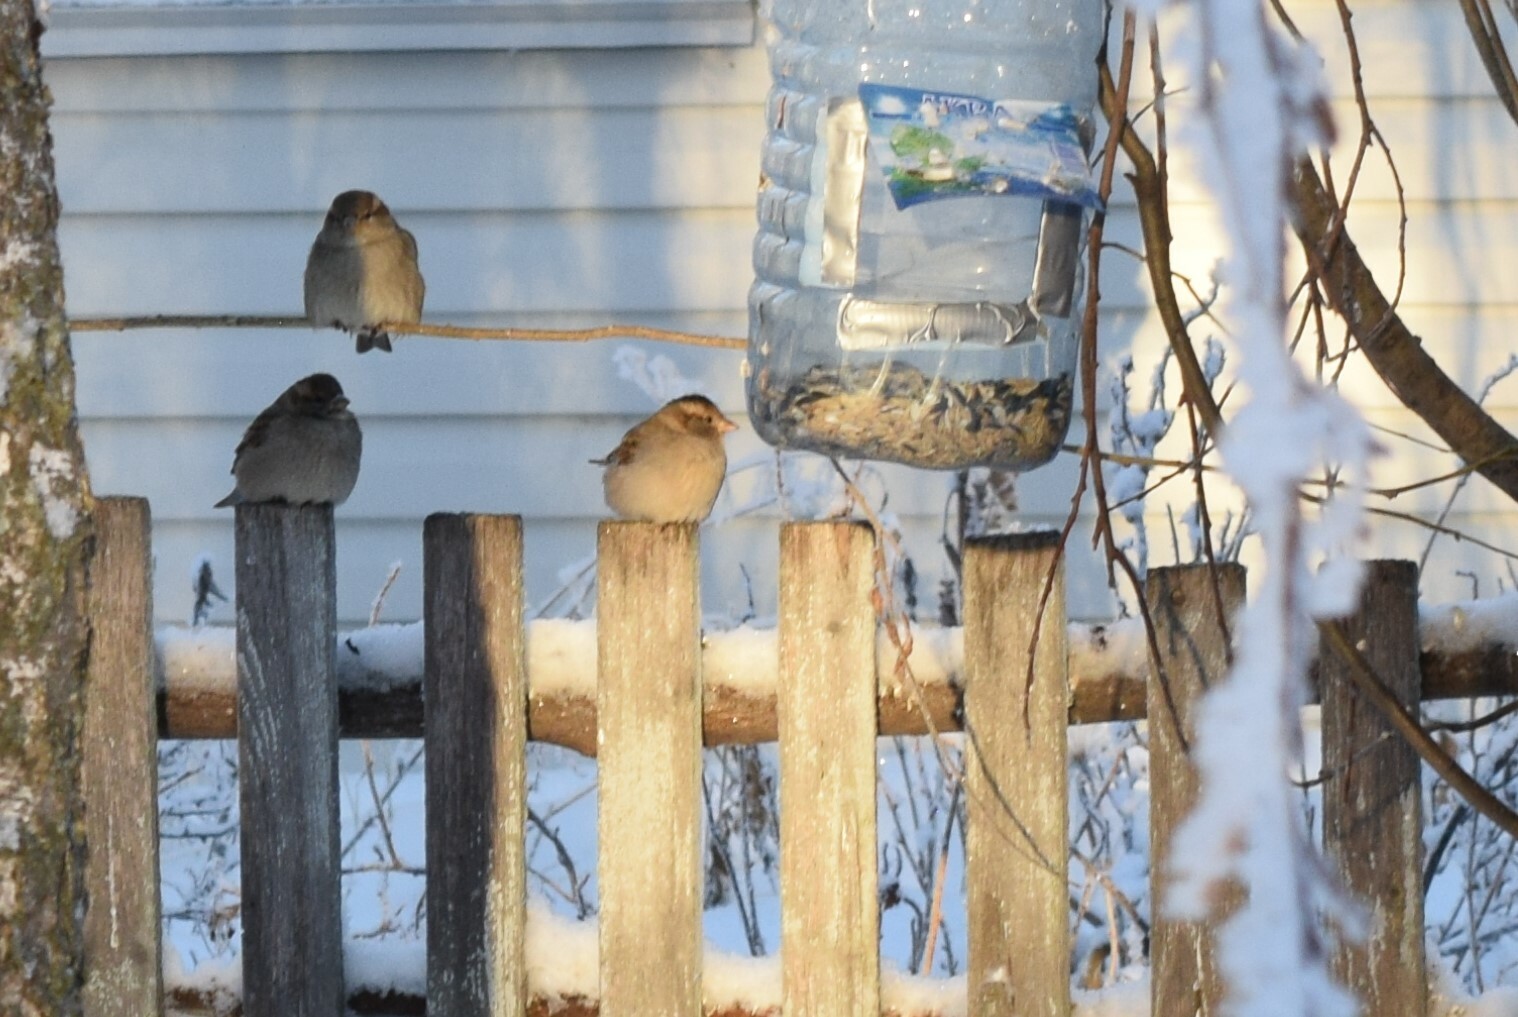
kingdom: Animalia
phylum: Chordata
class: Aves
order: Passeriformes
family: Passeridae
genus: Passer
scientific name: Passer domesticus
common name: House sparrow
